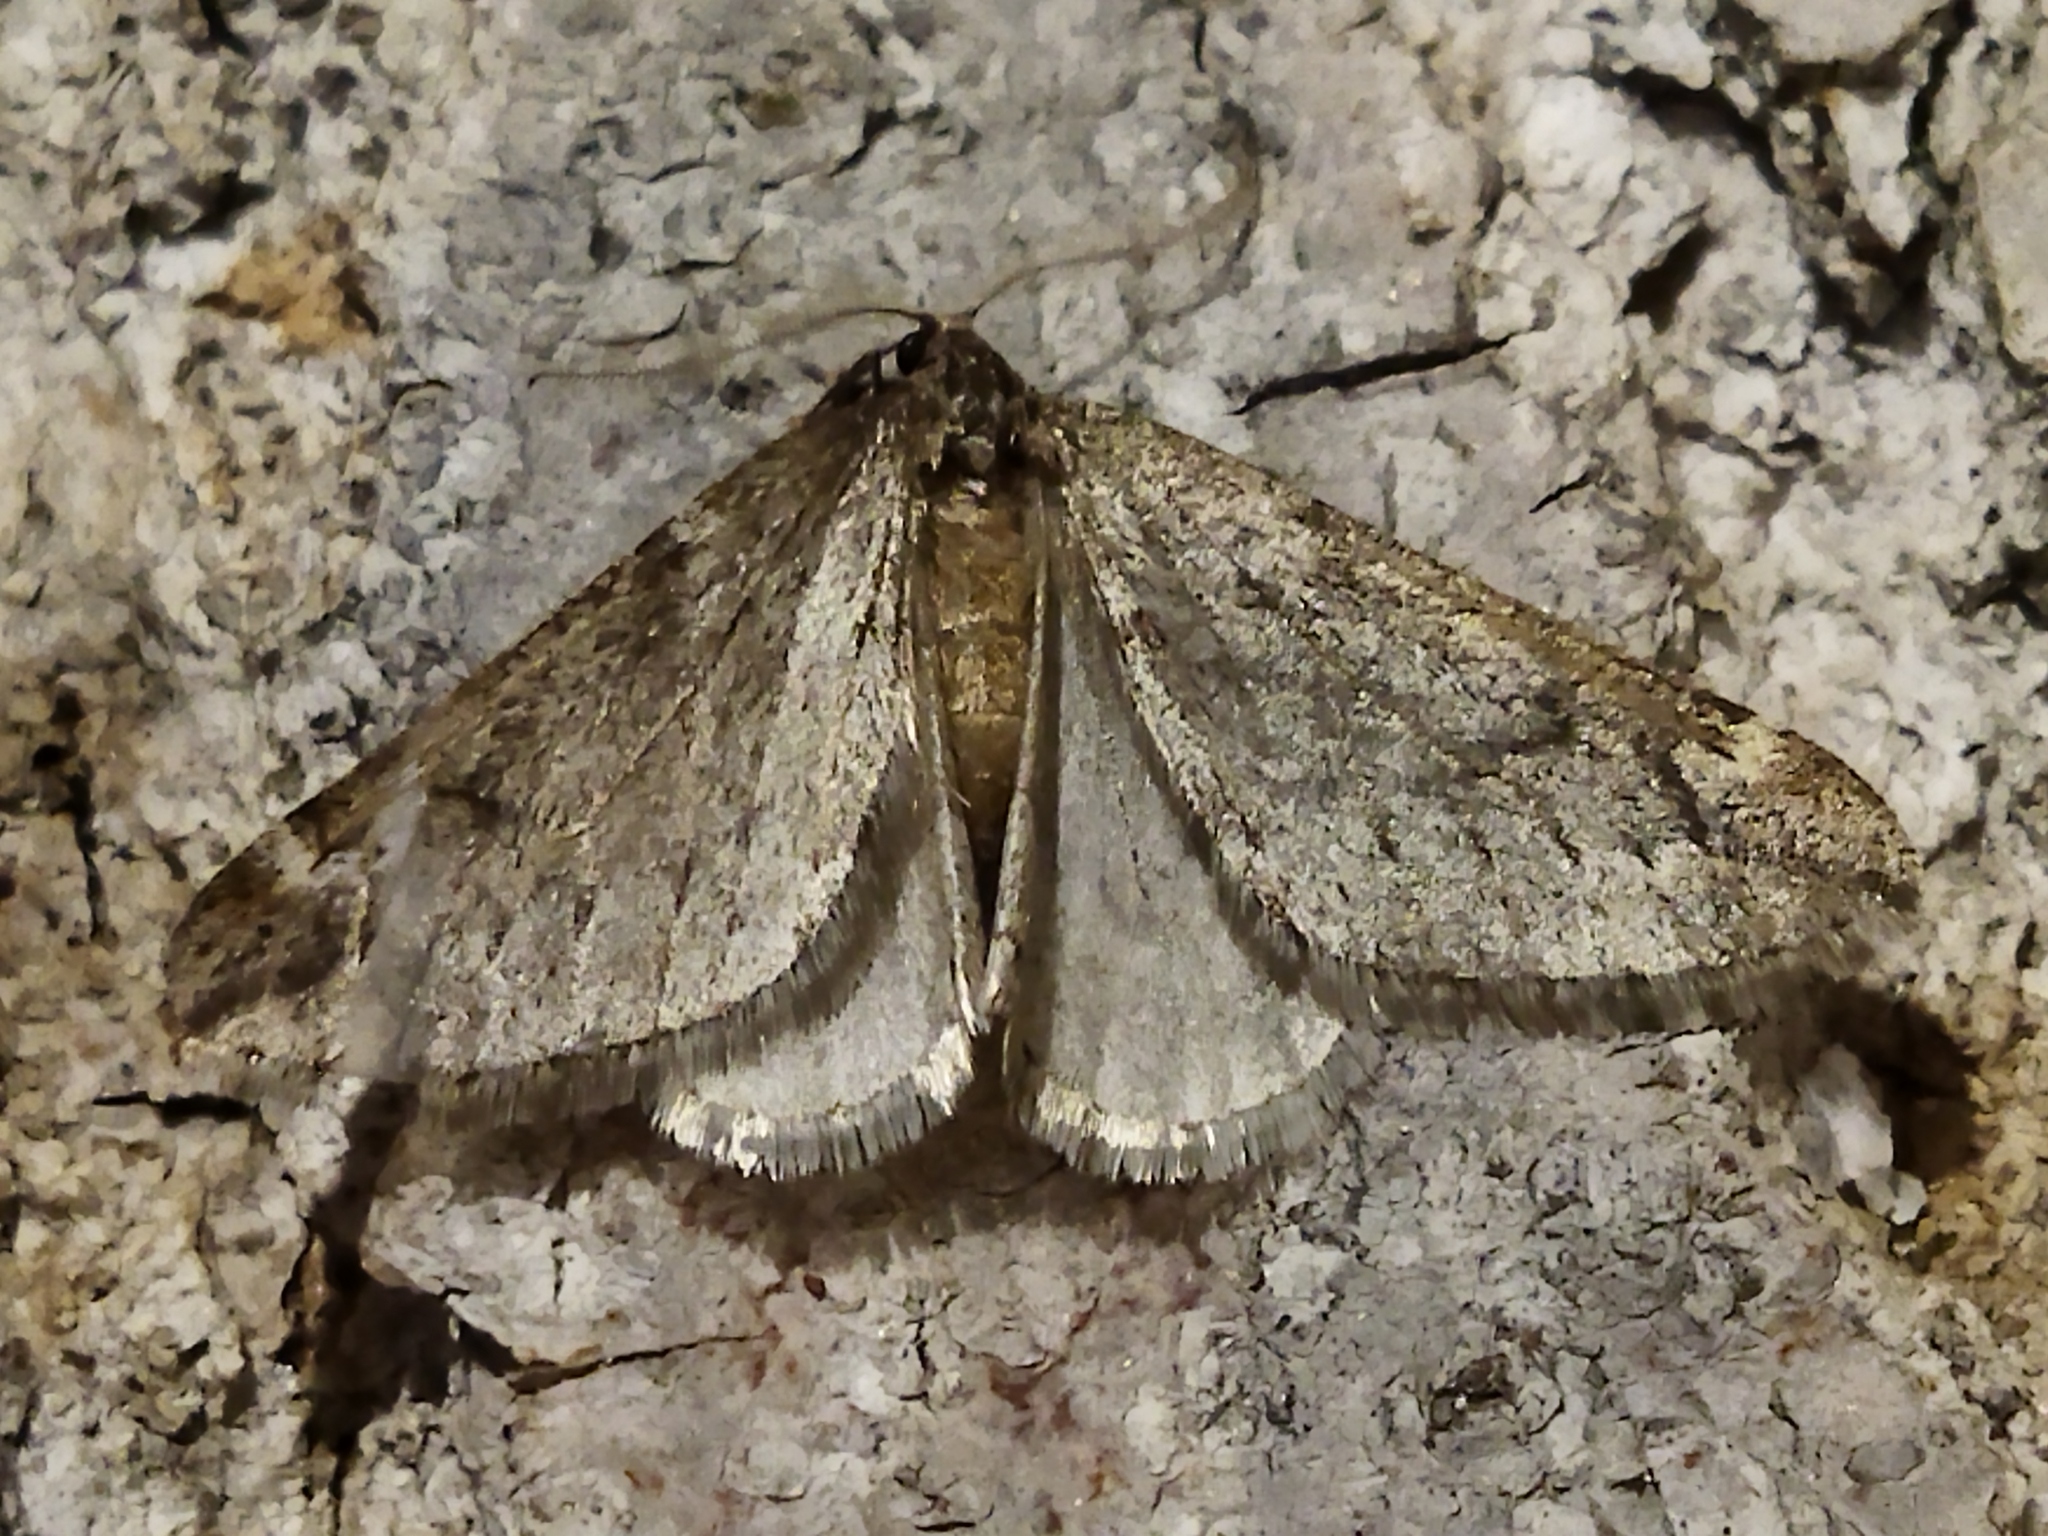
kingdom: Animalia
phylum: Arthropoda
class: Insecta
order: Lepidoptera
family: Geometridae
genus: Alsophila
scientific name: Alsophila aescularia
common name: March moth
